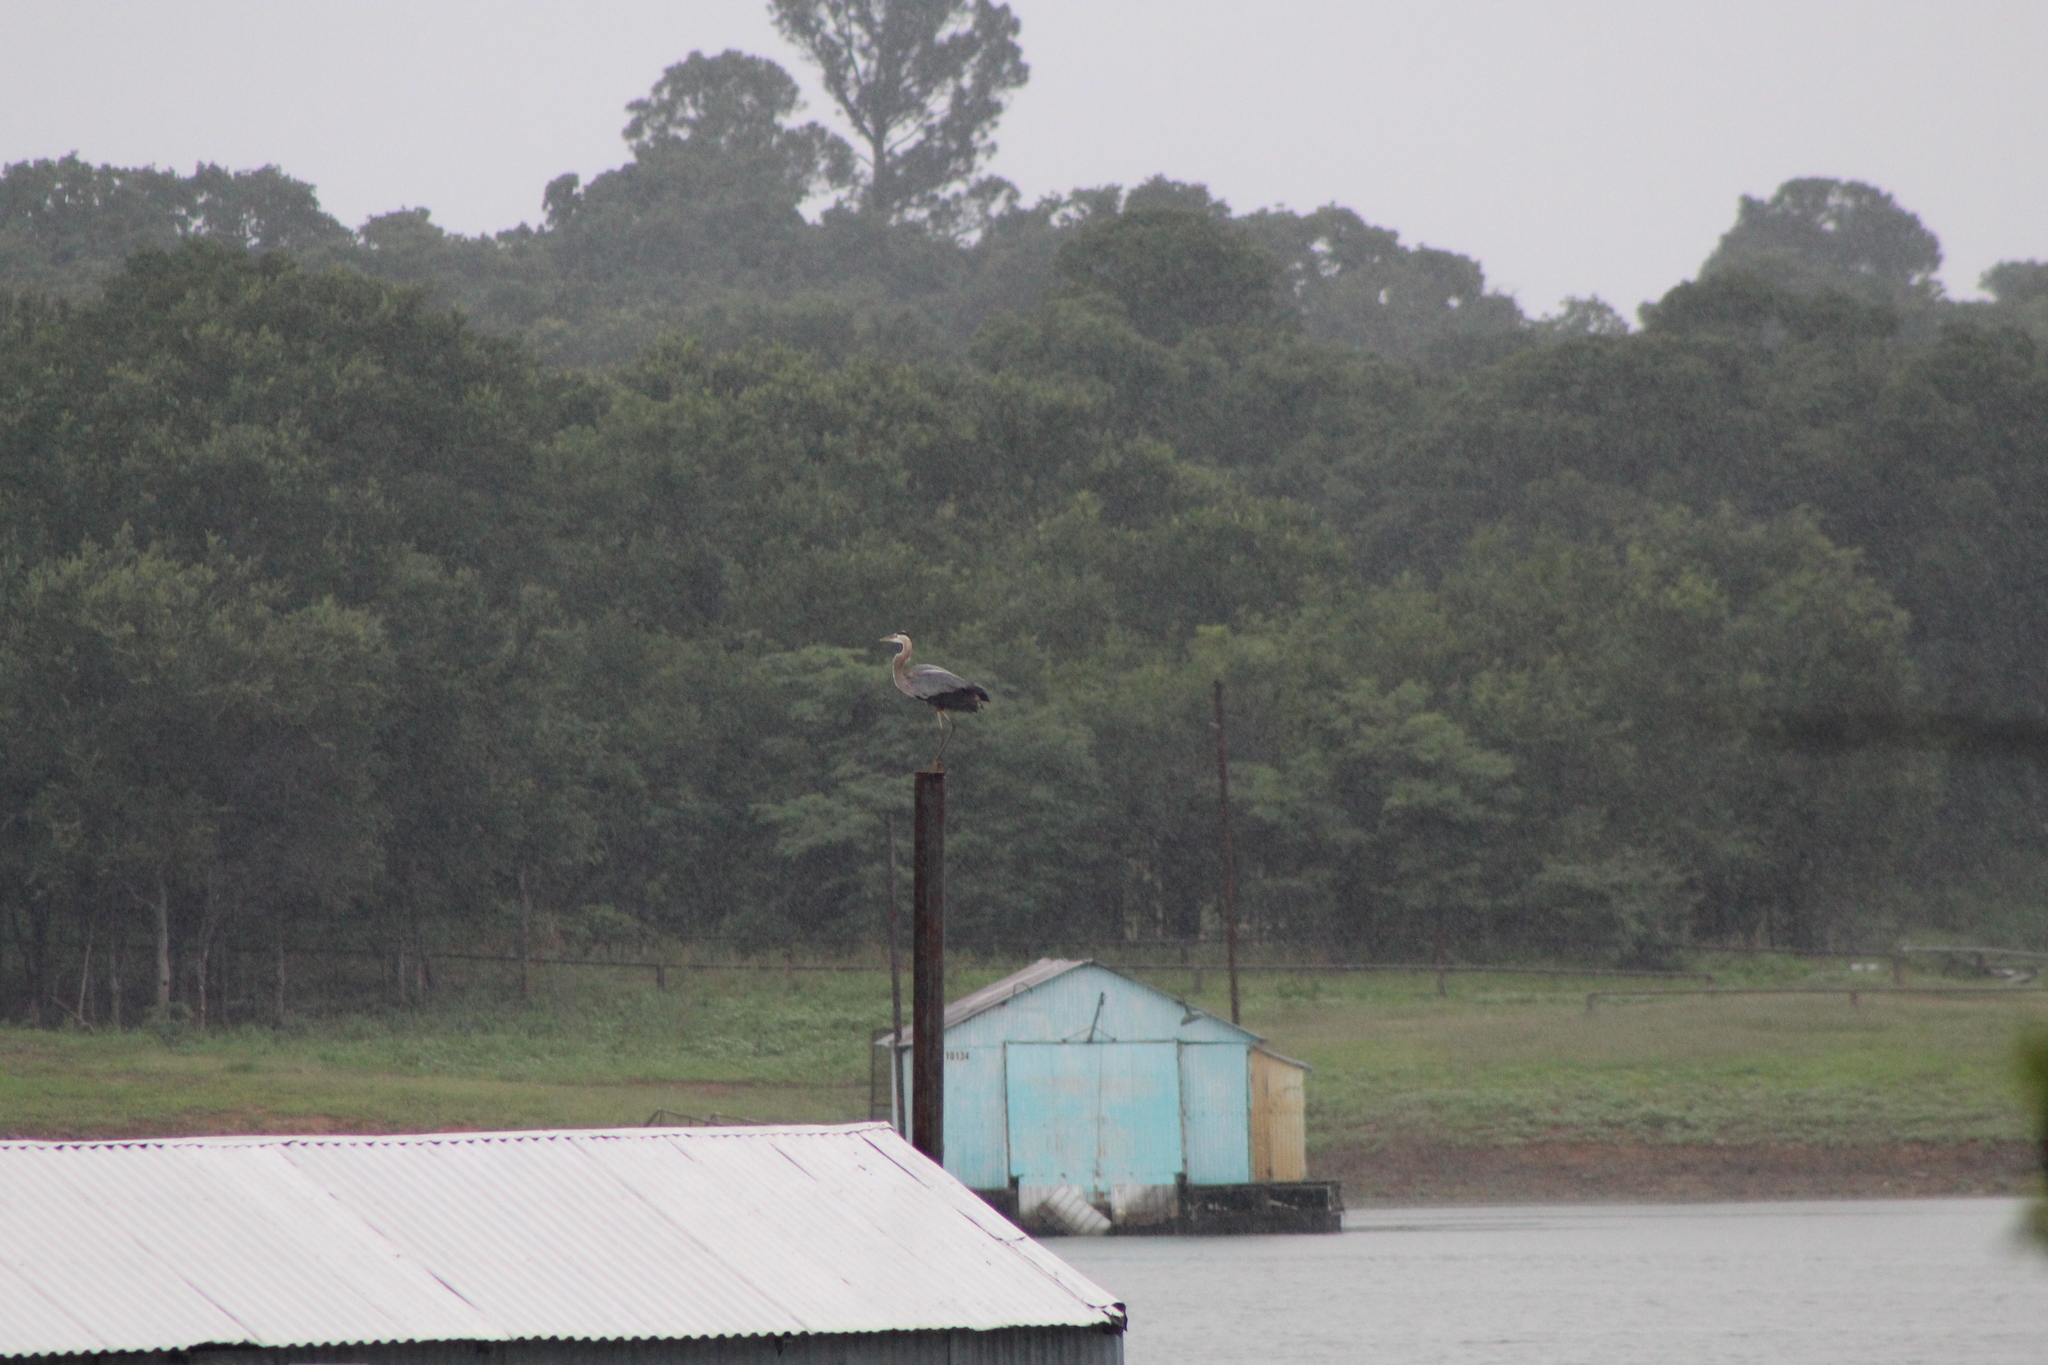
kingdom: Animalia
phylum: Chordata
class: Aves
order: Pelecaniformes
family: Ardeidae
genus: Ardea
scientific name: Ardea herodias
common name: Great blue heron
